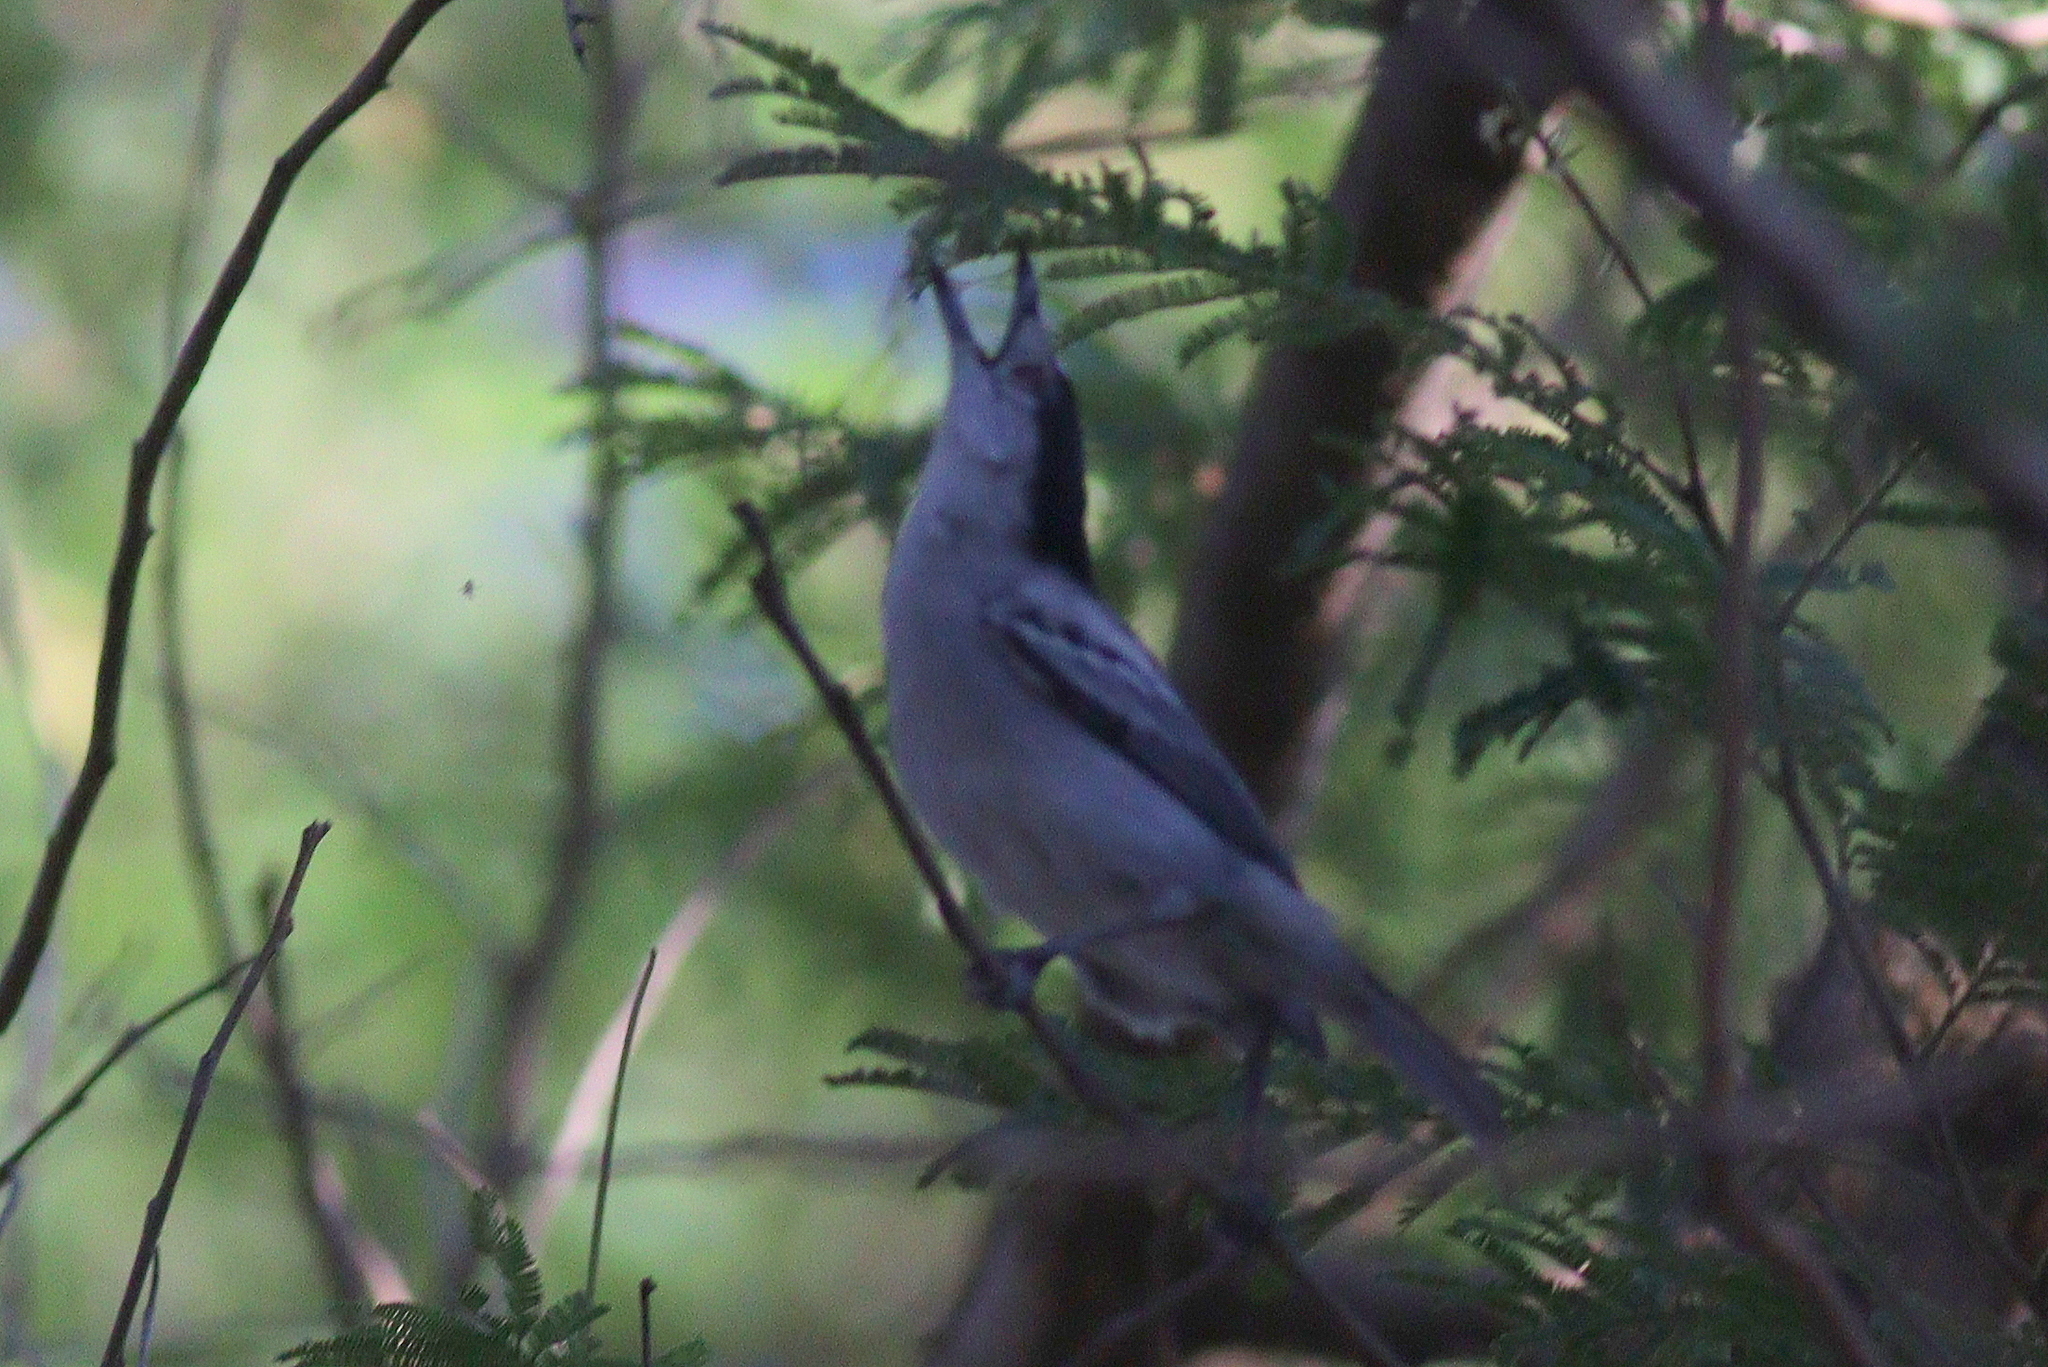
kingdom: Animalia
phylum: Chordata
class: Aves
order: Passeriformes
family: Malaconotidae
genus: Dryoscopus
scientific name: Dryoscopus cubla
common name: Black-backed puffback
